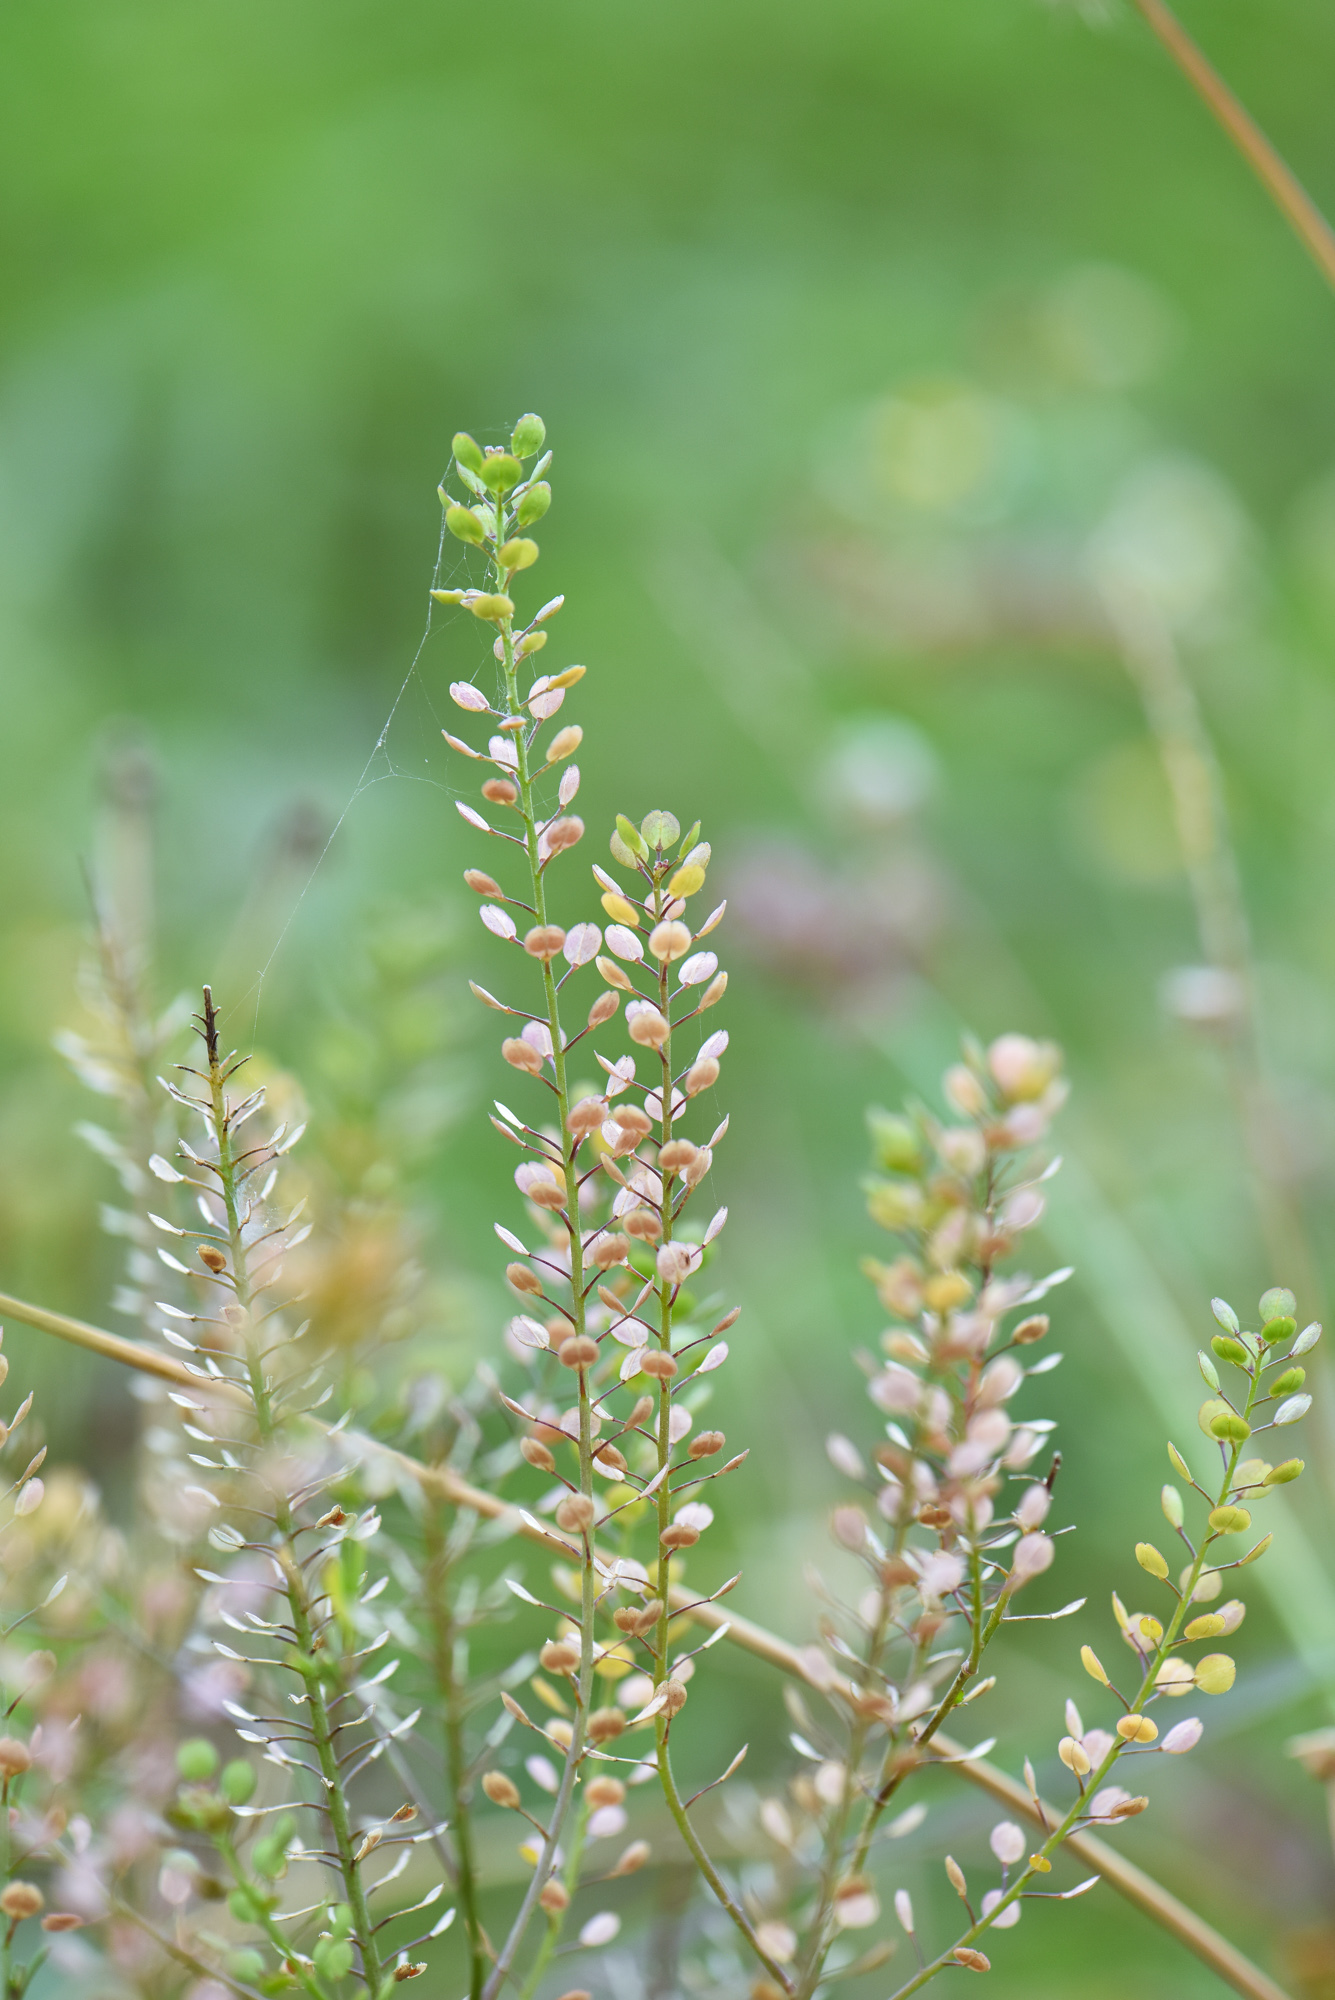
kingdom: Plantae
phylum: Tracheophyta
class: Magnoliopsida
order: Brassicales
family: Brassicaceae
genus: Lepidium
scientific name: Lepidium virginicum
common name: Least pepperwort
